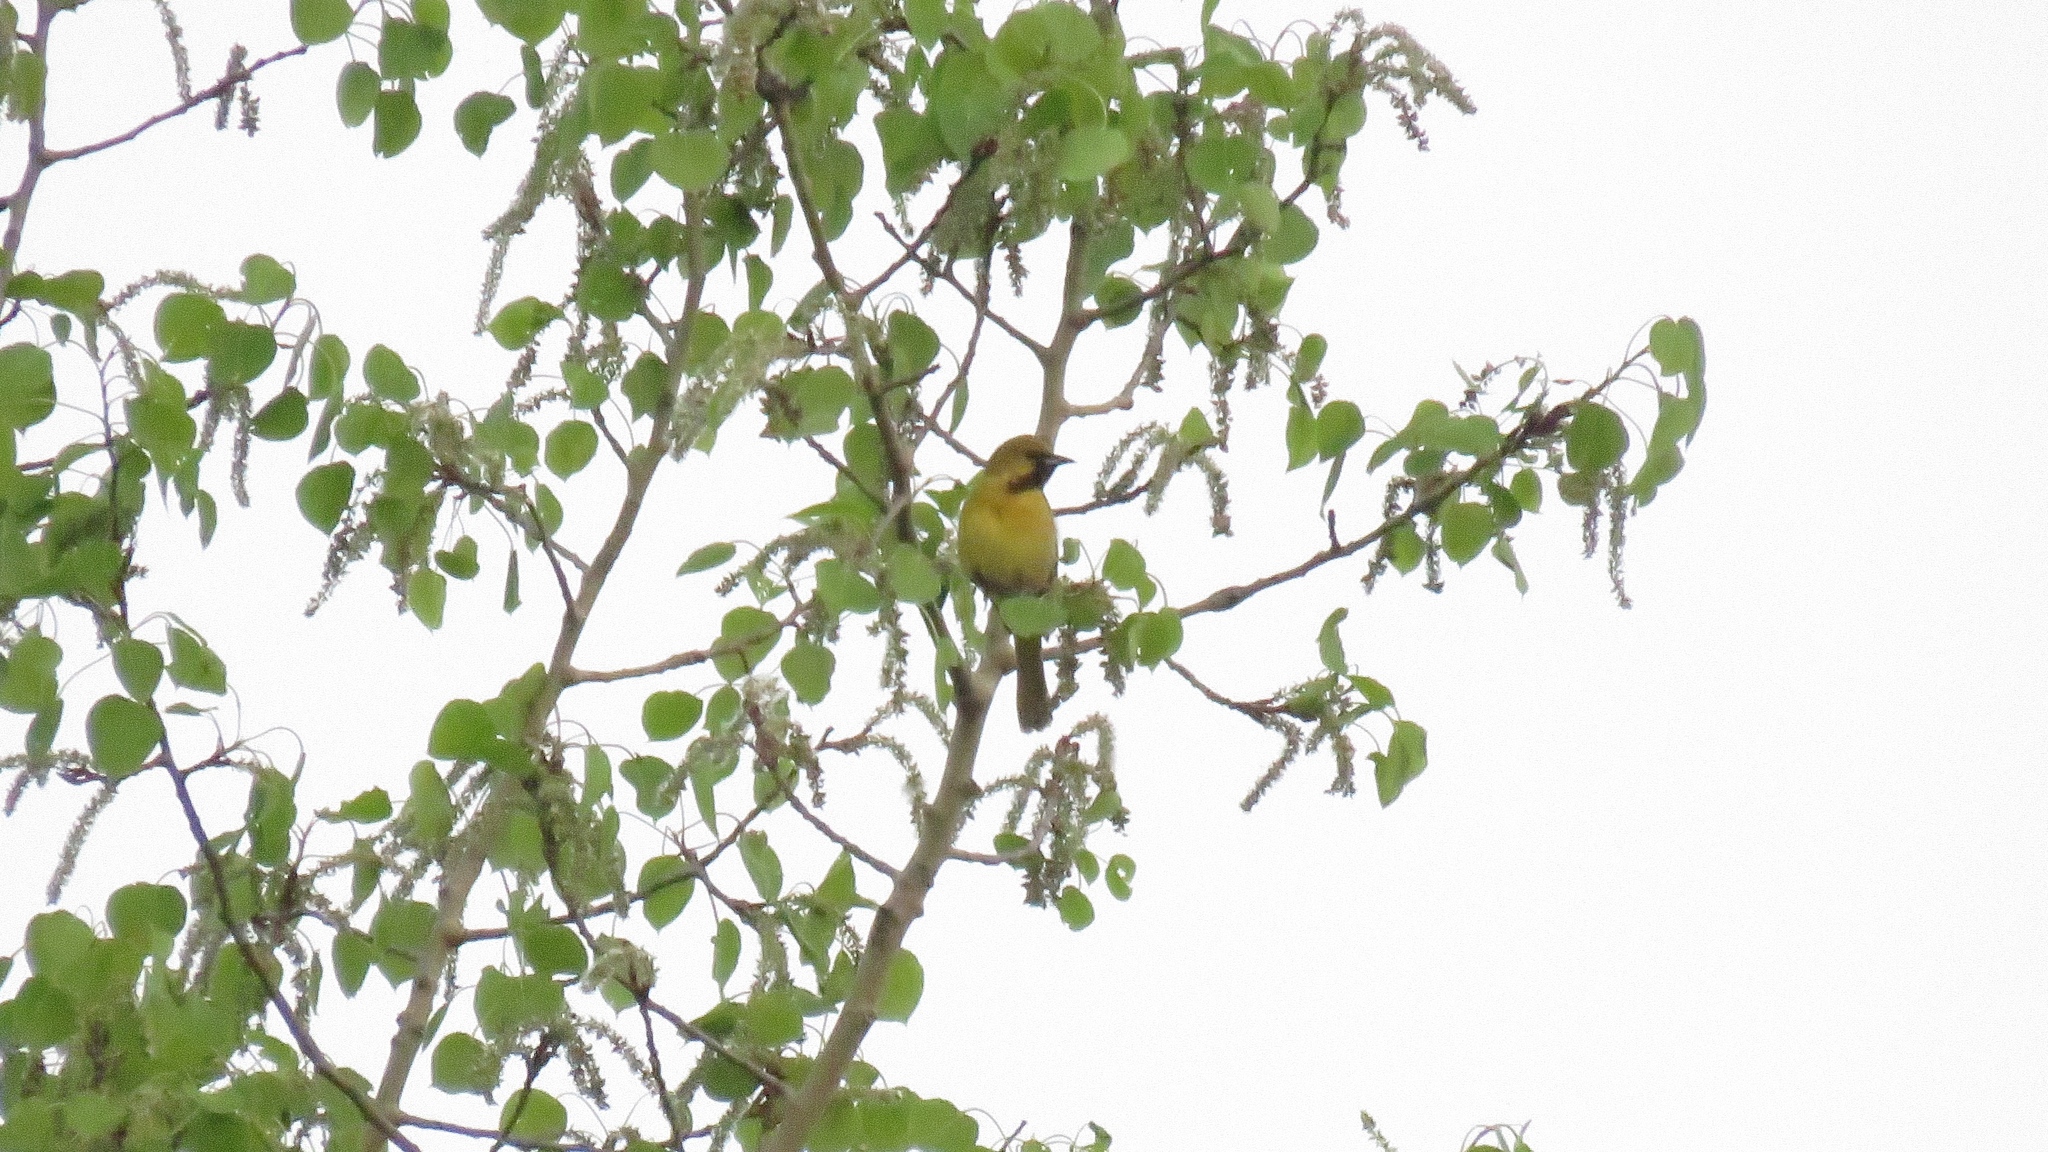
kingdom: Animalia
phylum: Chordata
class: Aves
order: Passeriformes
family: Icteridae
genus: Icterus
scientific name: Icterus spurius
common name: Orchard oriole
